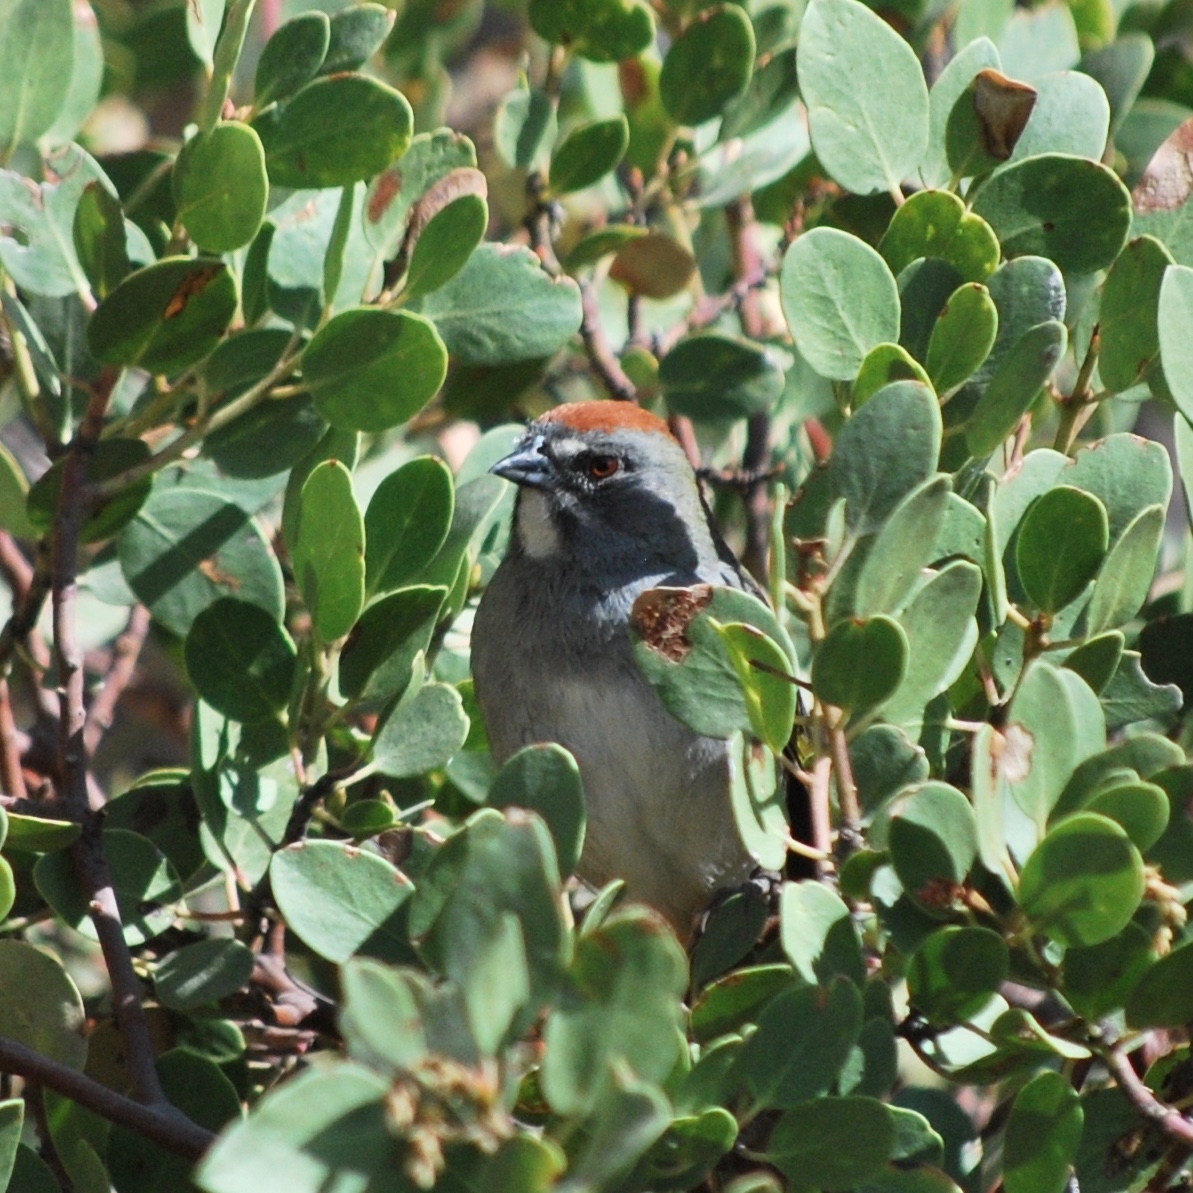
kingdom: Animalia
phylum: Chordata
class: Aves
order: Passeriformes
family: Passerellidae
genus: Pipilo
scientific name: Pipilo chlorurus
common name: Green-tailed towhee
